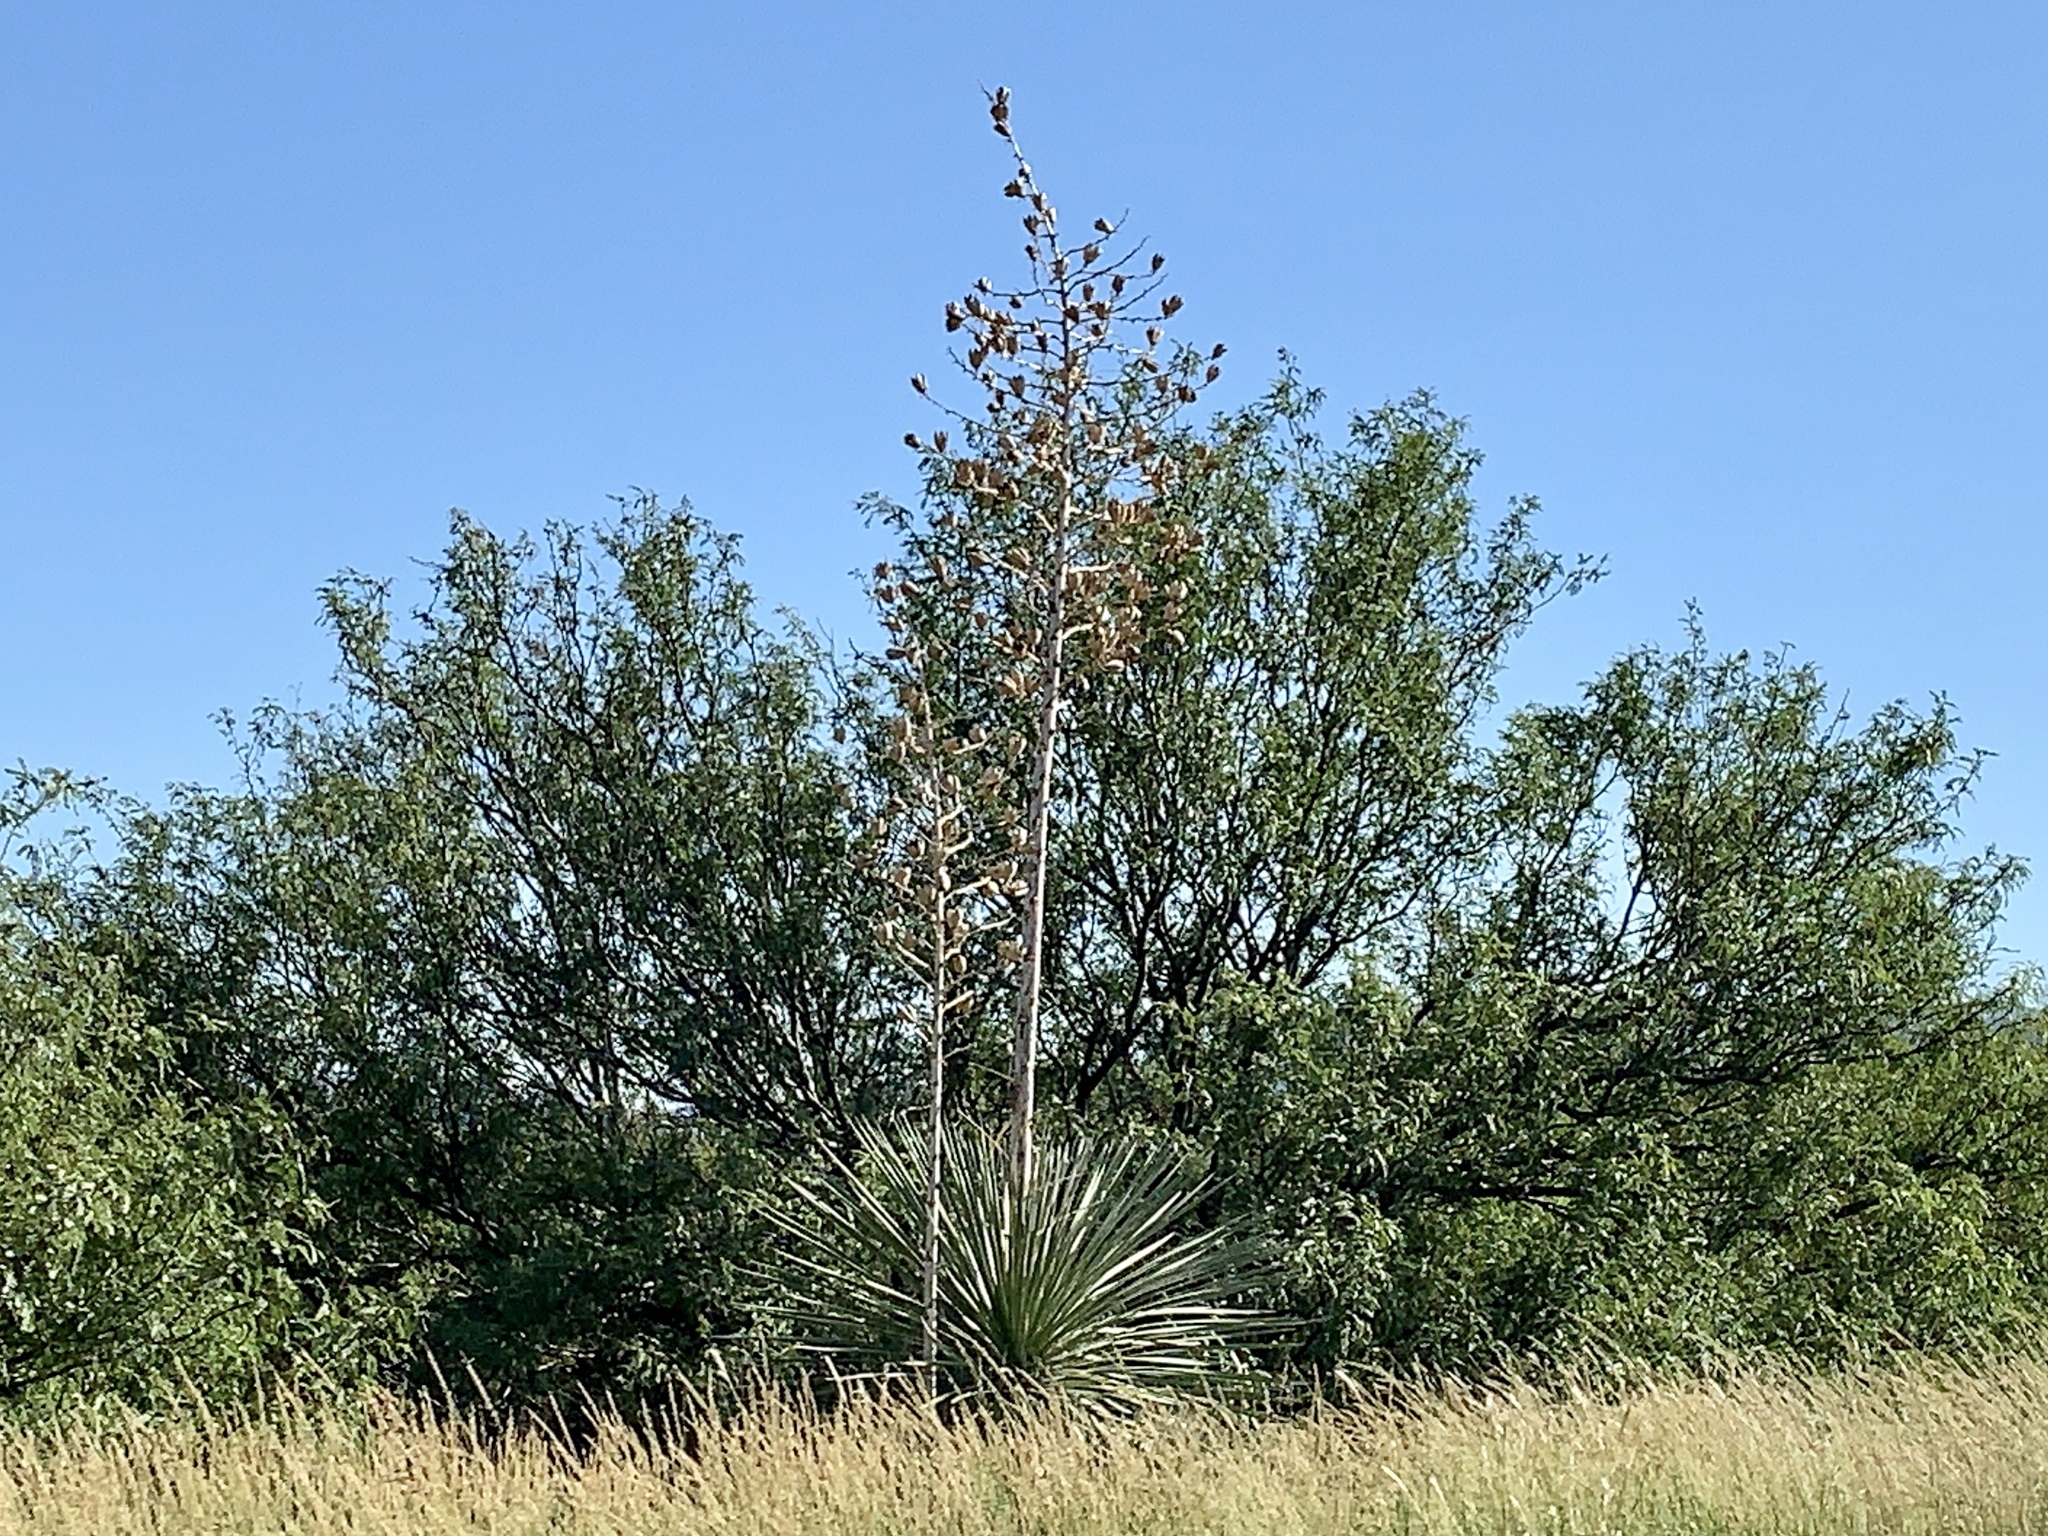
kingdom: Plantae
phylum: Tracheophyta
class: Liliopsida
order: Asparagales
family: Asparagaceae
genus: Yucca
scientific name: Yucca elata
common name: Palmella
